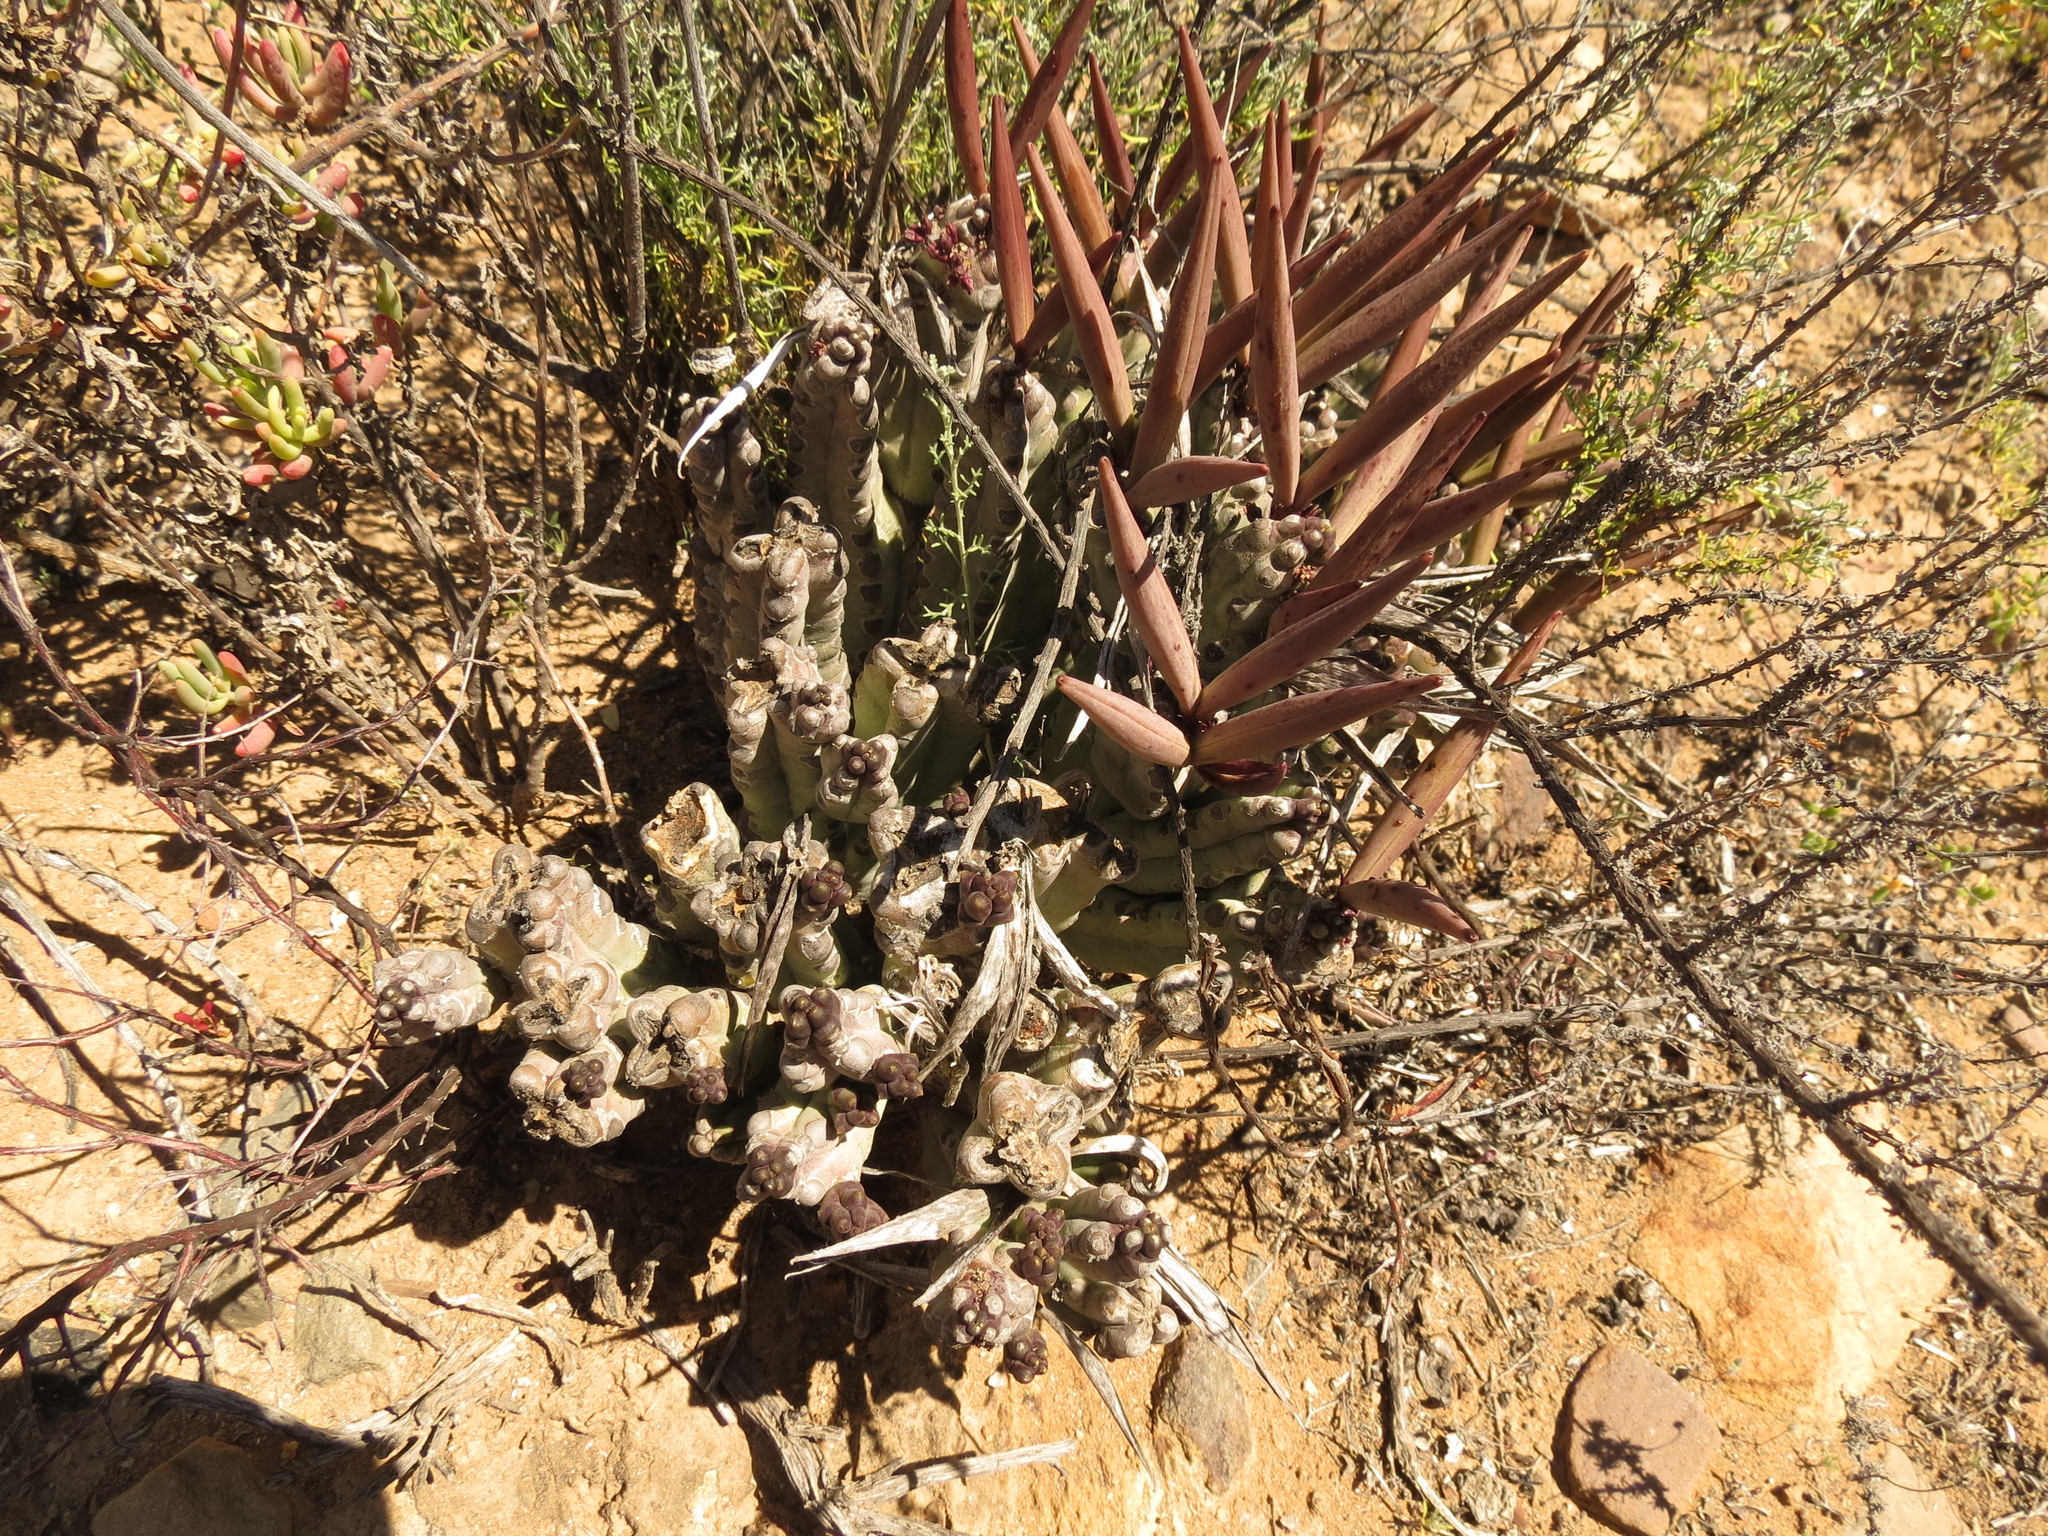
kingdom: Plantae
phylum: Tracheophyta
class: Magnoliopsida
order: Gentianales
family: Apocynaceae
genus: Ceropegia
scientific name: Ceropegia ramosa
